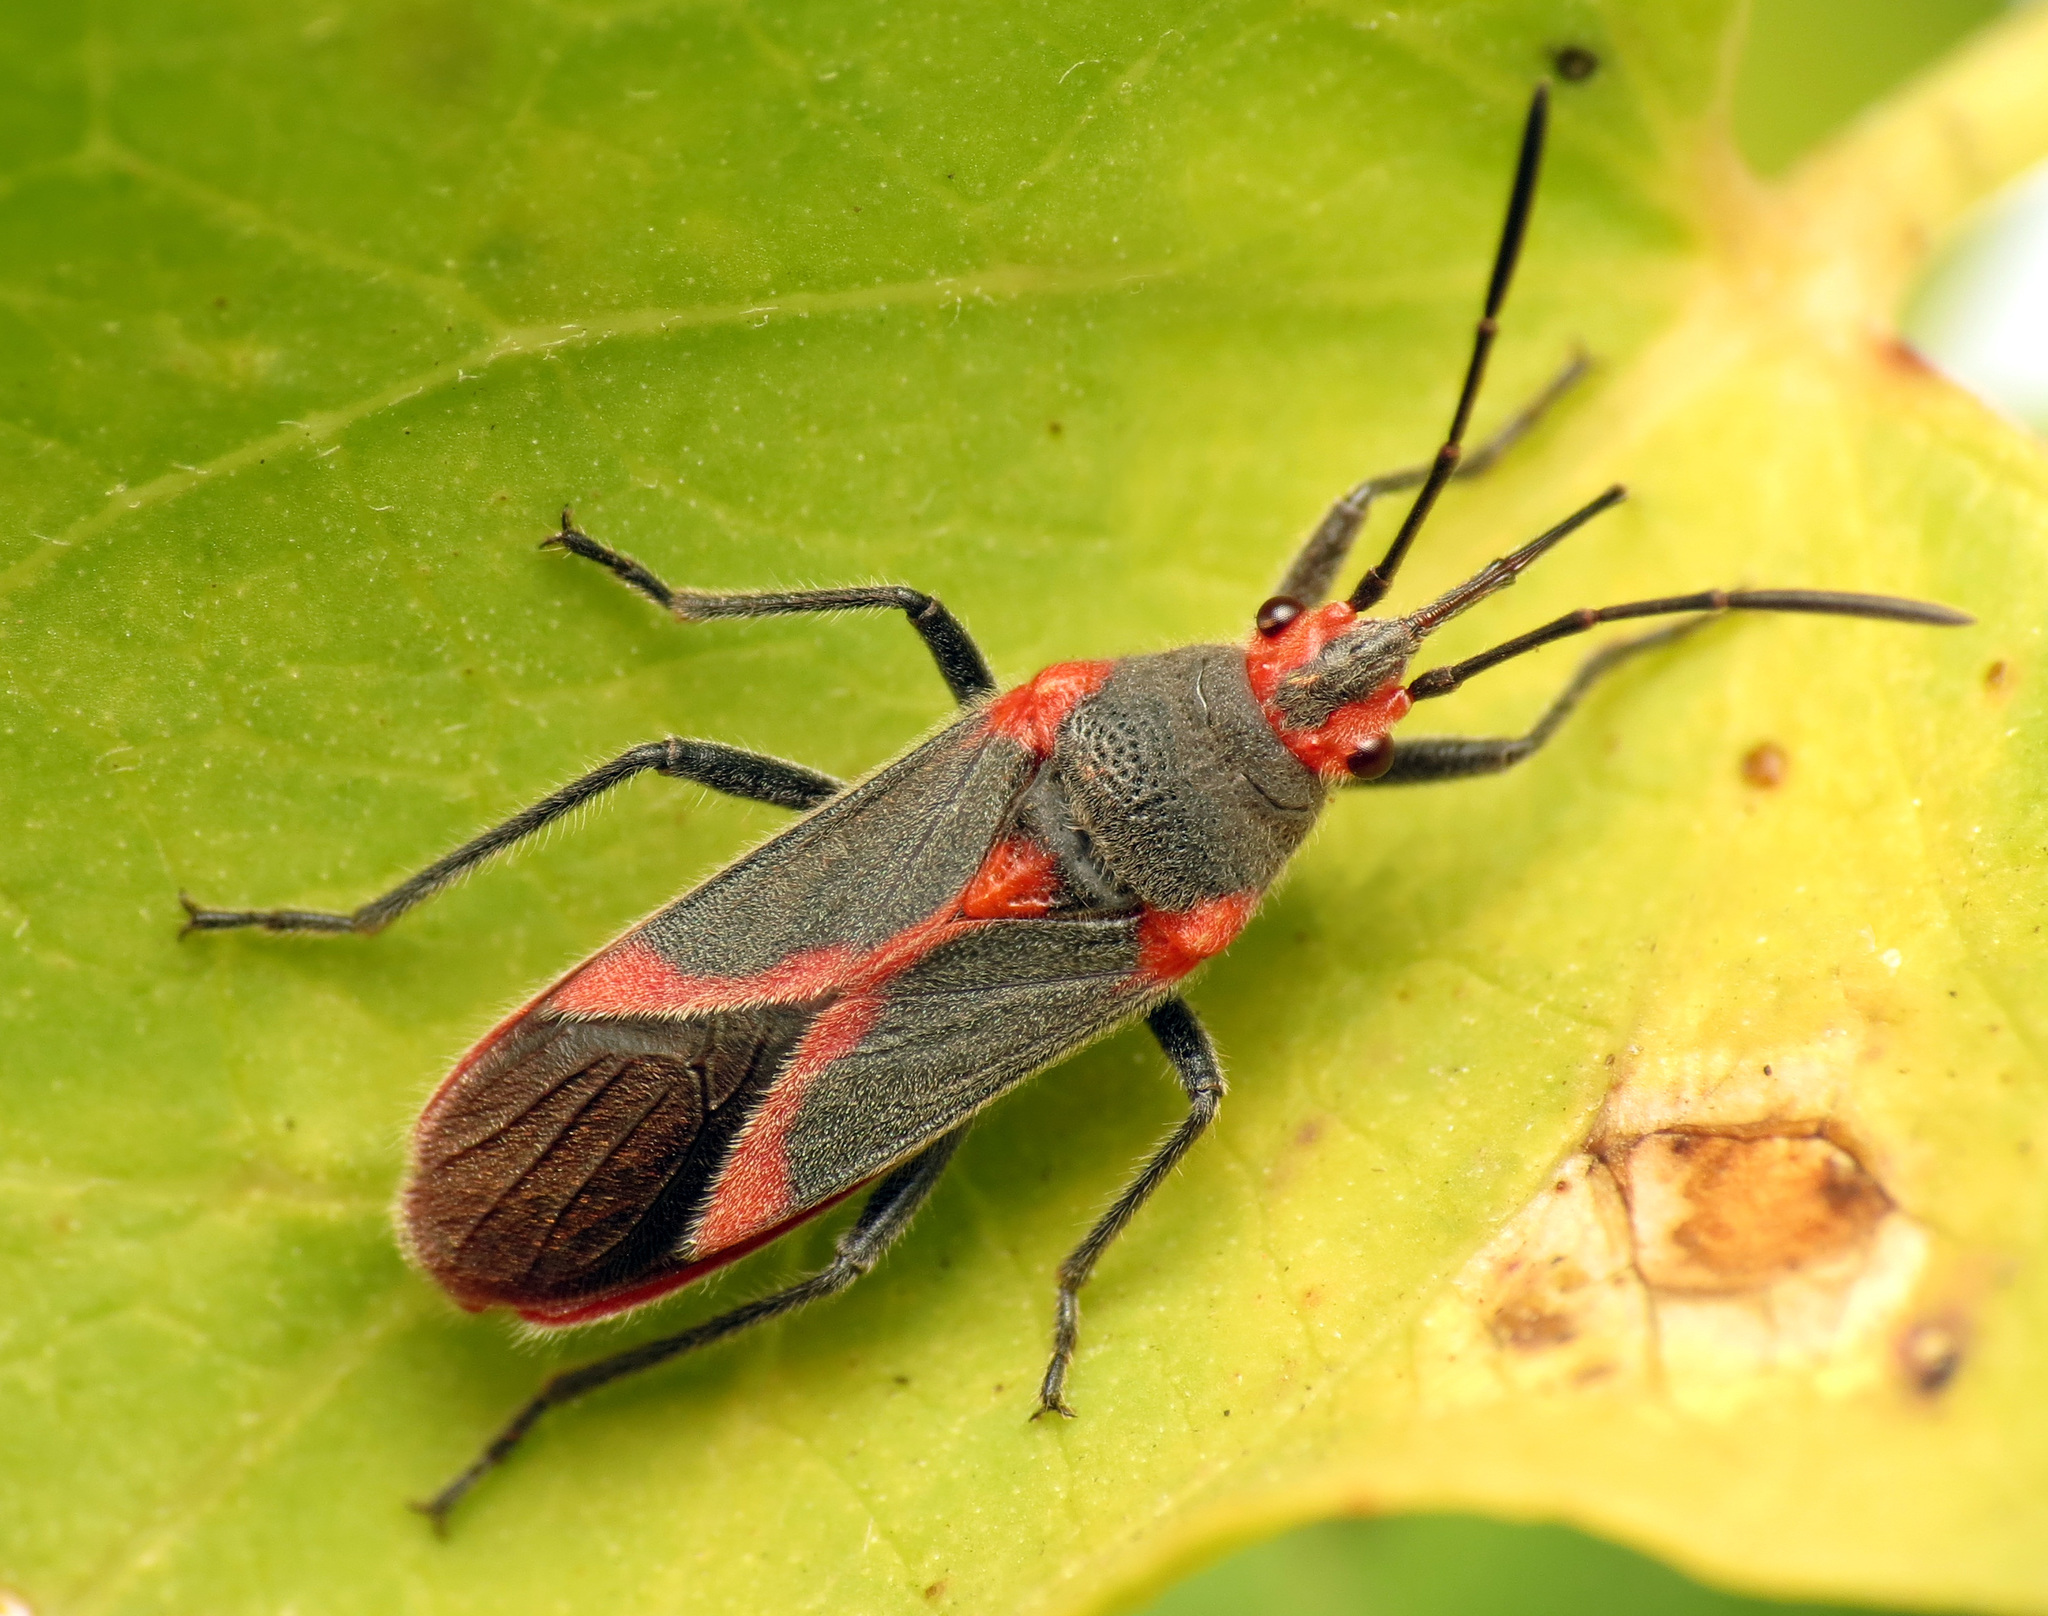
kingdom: Animalia
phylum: Arthropoda
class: Insecta
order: Hemiptera
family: Lygaeidae
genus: Caenocoris
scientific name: Caenocoris nerii
